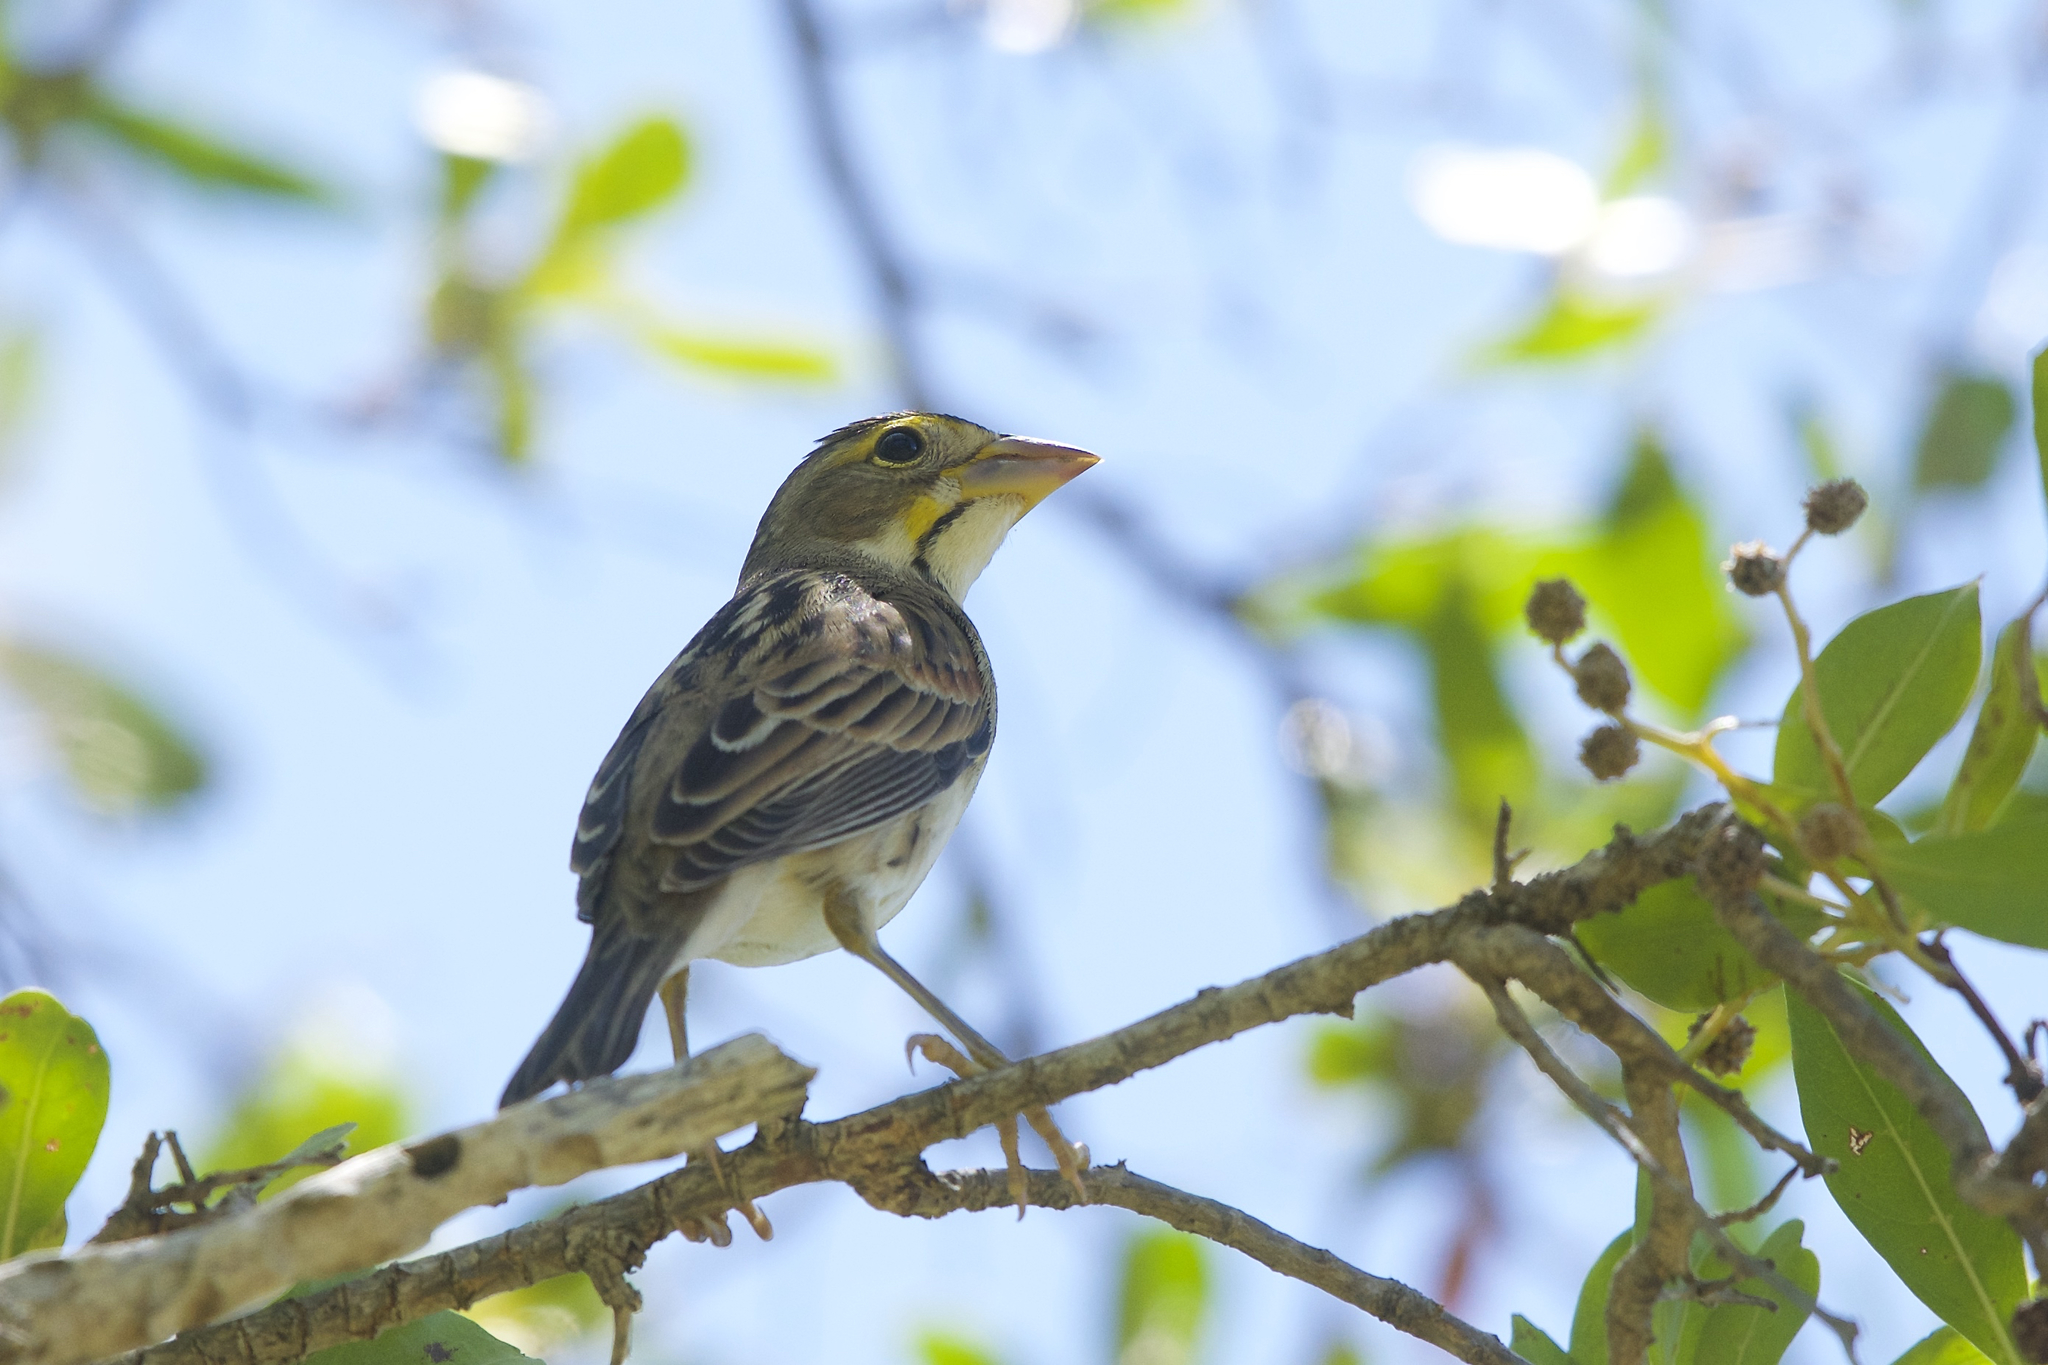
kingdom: Animalia
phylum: Chordata
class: Aves
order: Passeriformes
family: Cardinalidae
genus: Spiza
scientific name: Spiza americana
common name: Dickcissel
